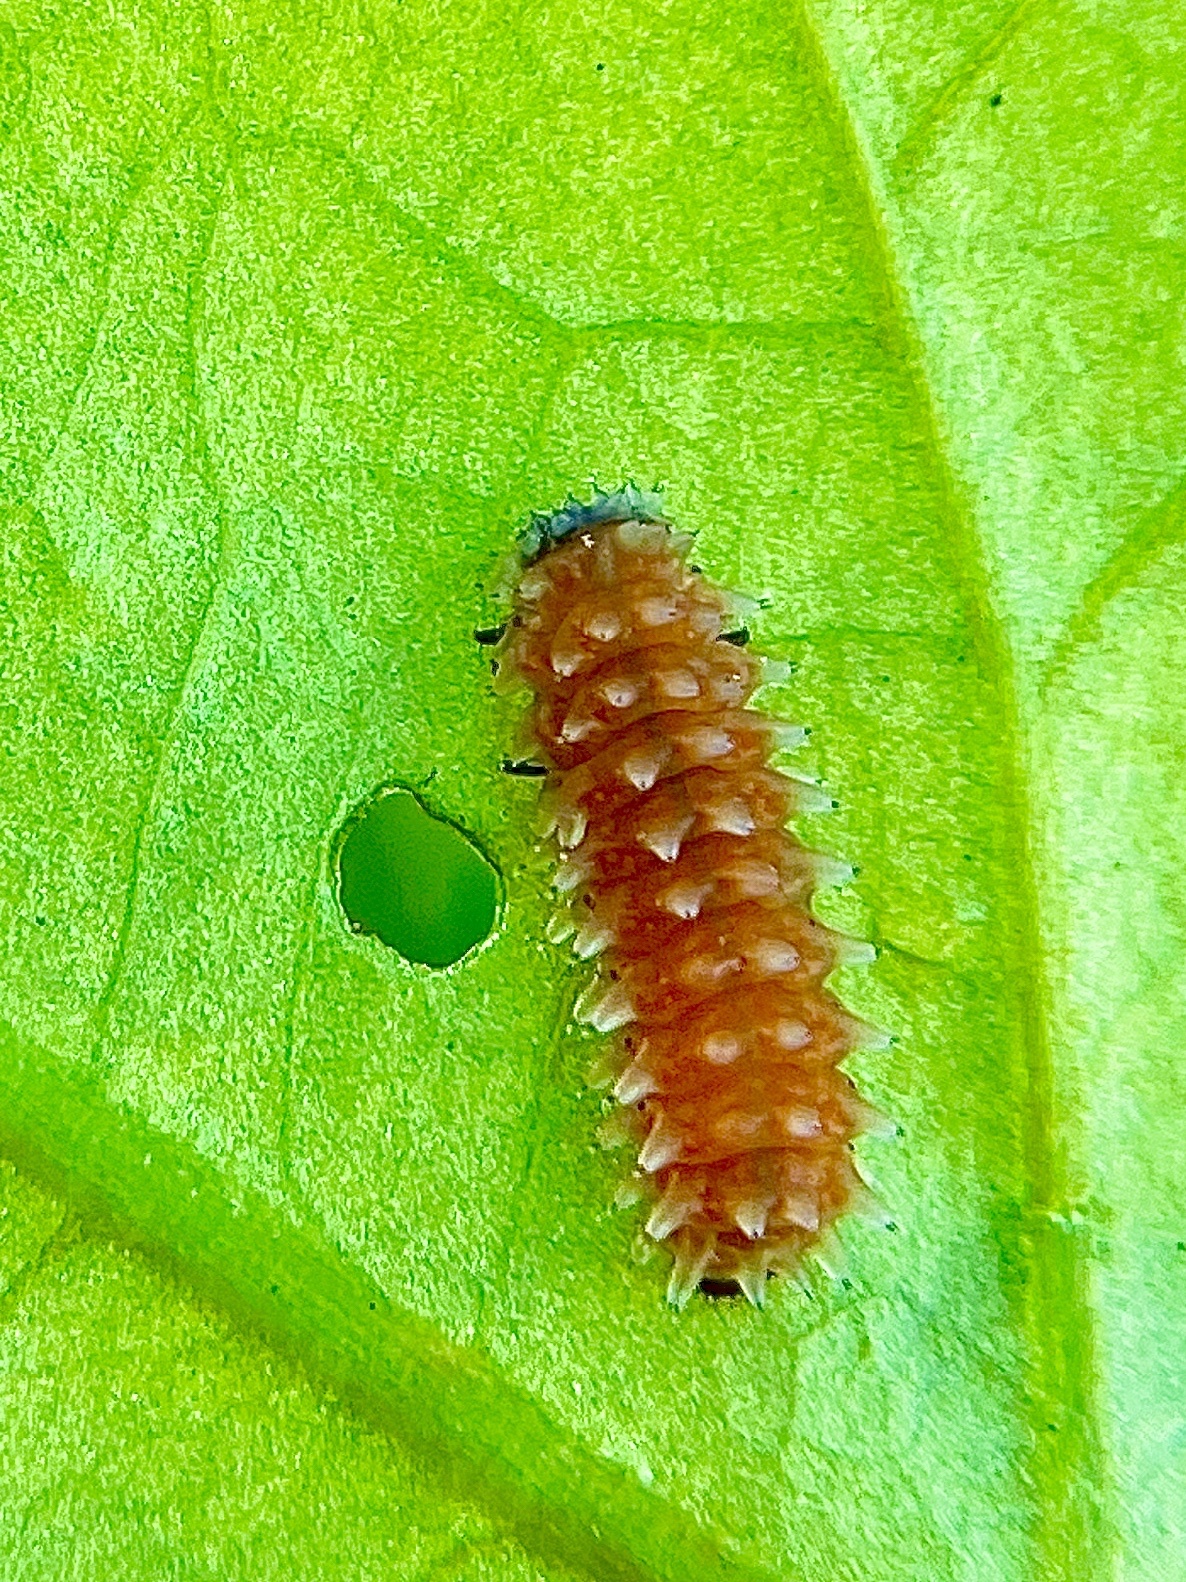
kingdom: Animalia
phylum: Arthropoda
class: Insecta
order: Coleoptera
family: Chrysomelidae
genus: Disonycha
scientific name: Disonycha
